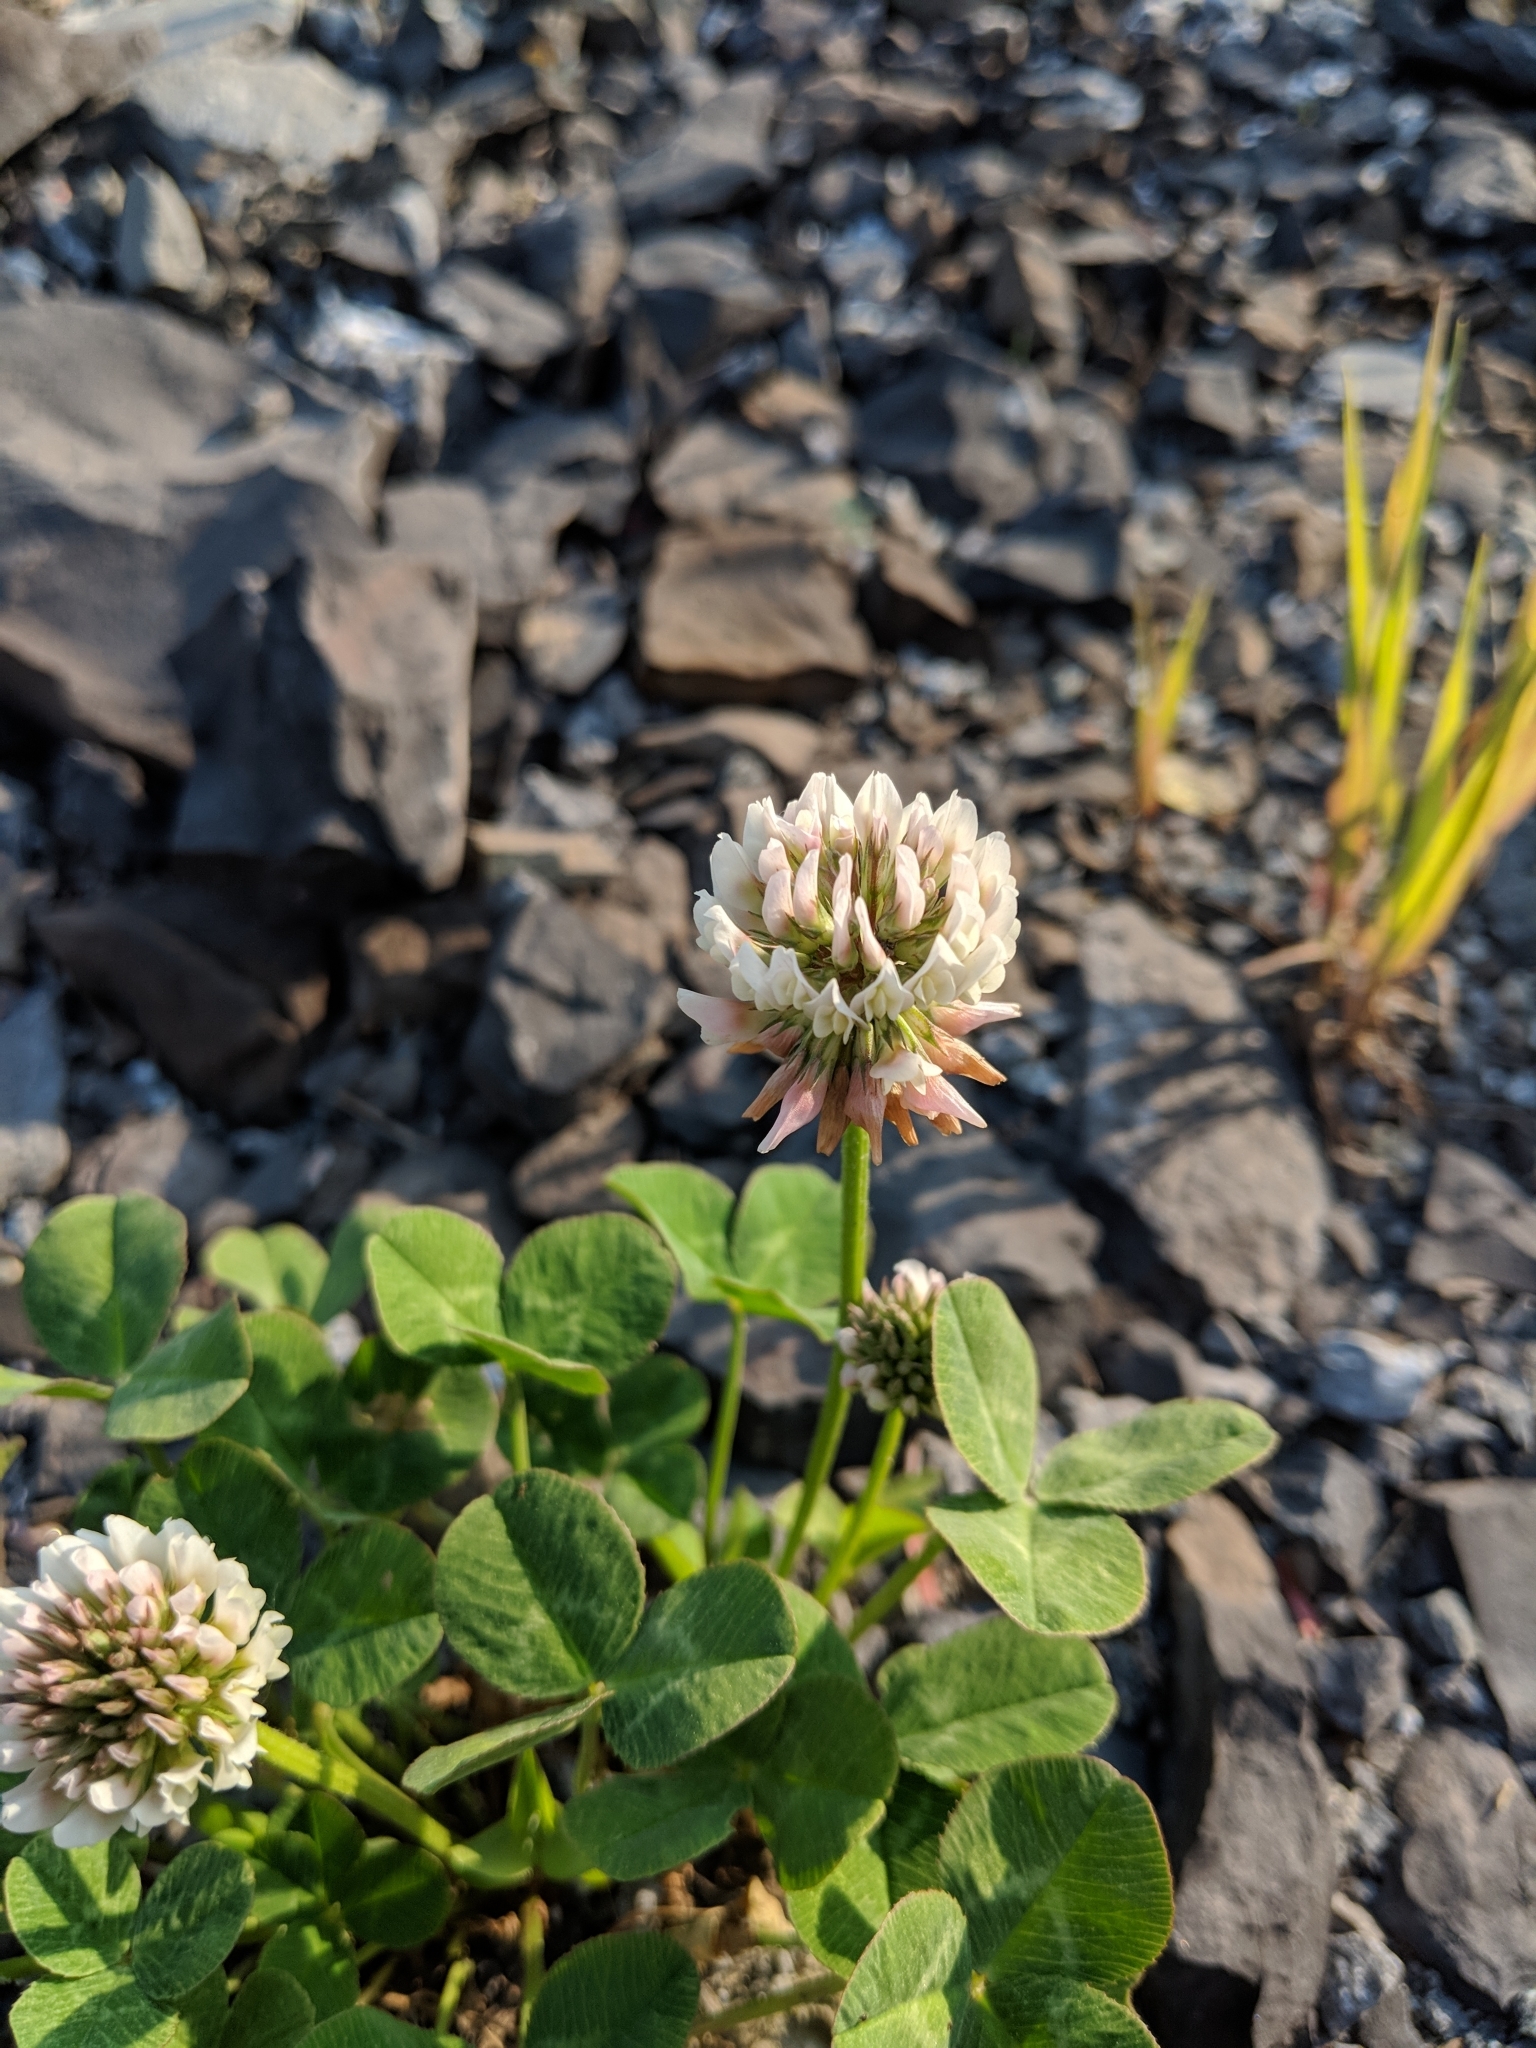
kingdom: Plantae
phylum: Tracheophyta
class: Magnoliopsida
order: Fabales
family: Fabaceae
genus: Trifolium
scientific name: Trifolium repens
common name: White clover
